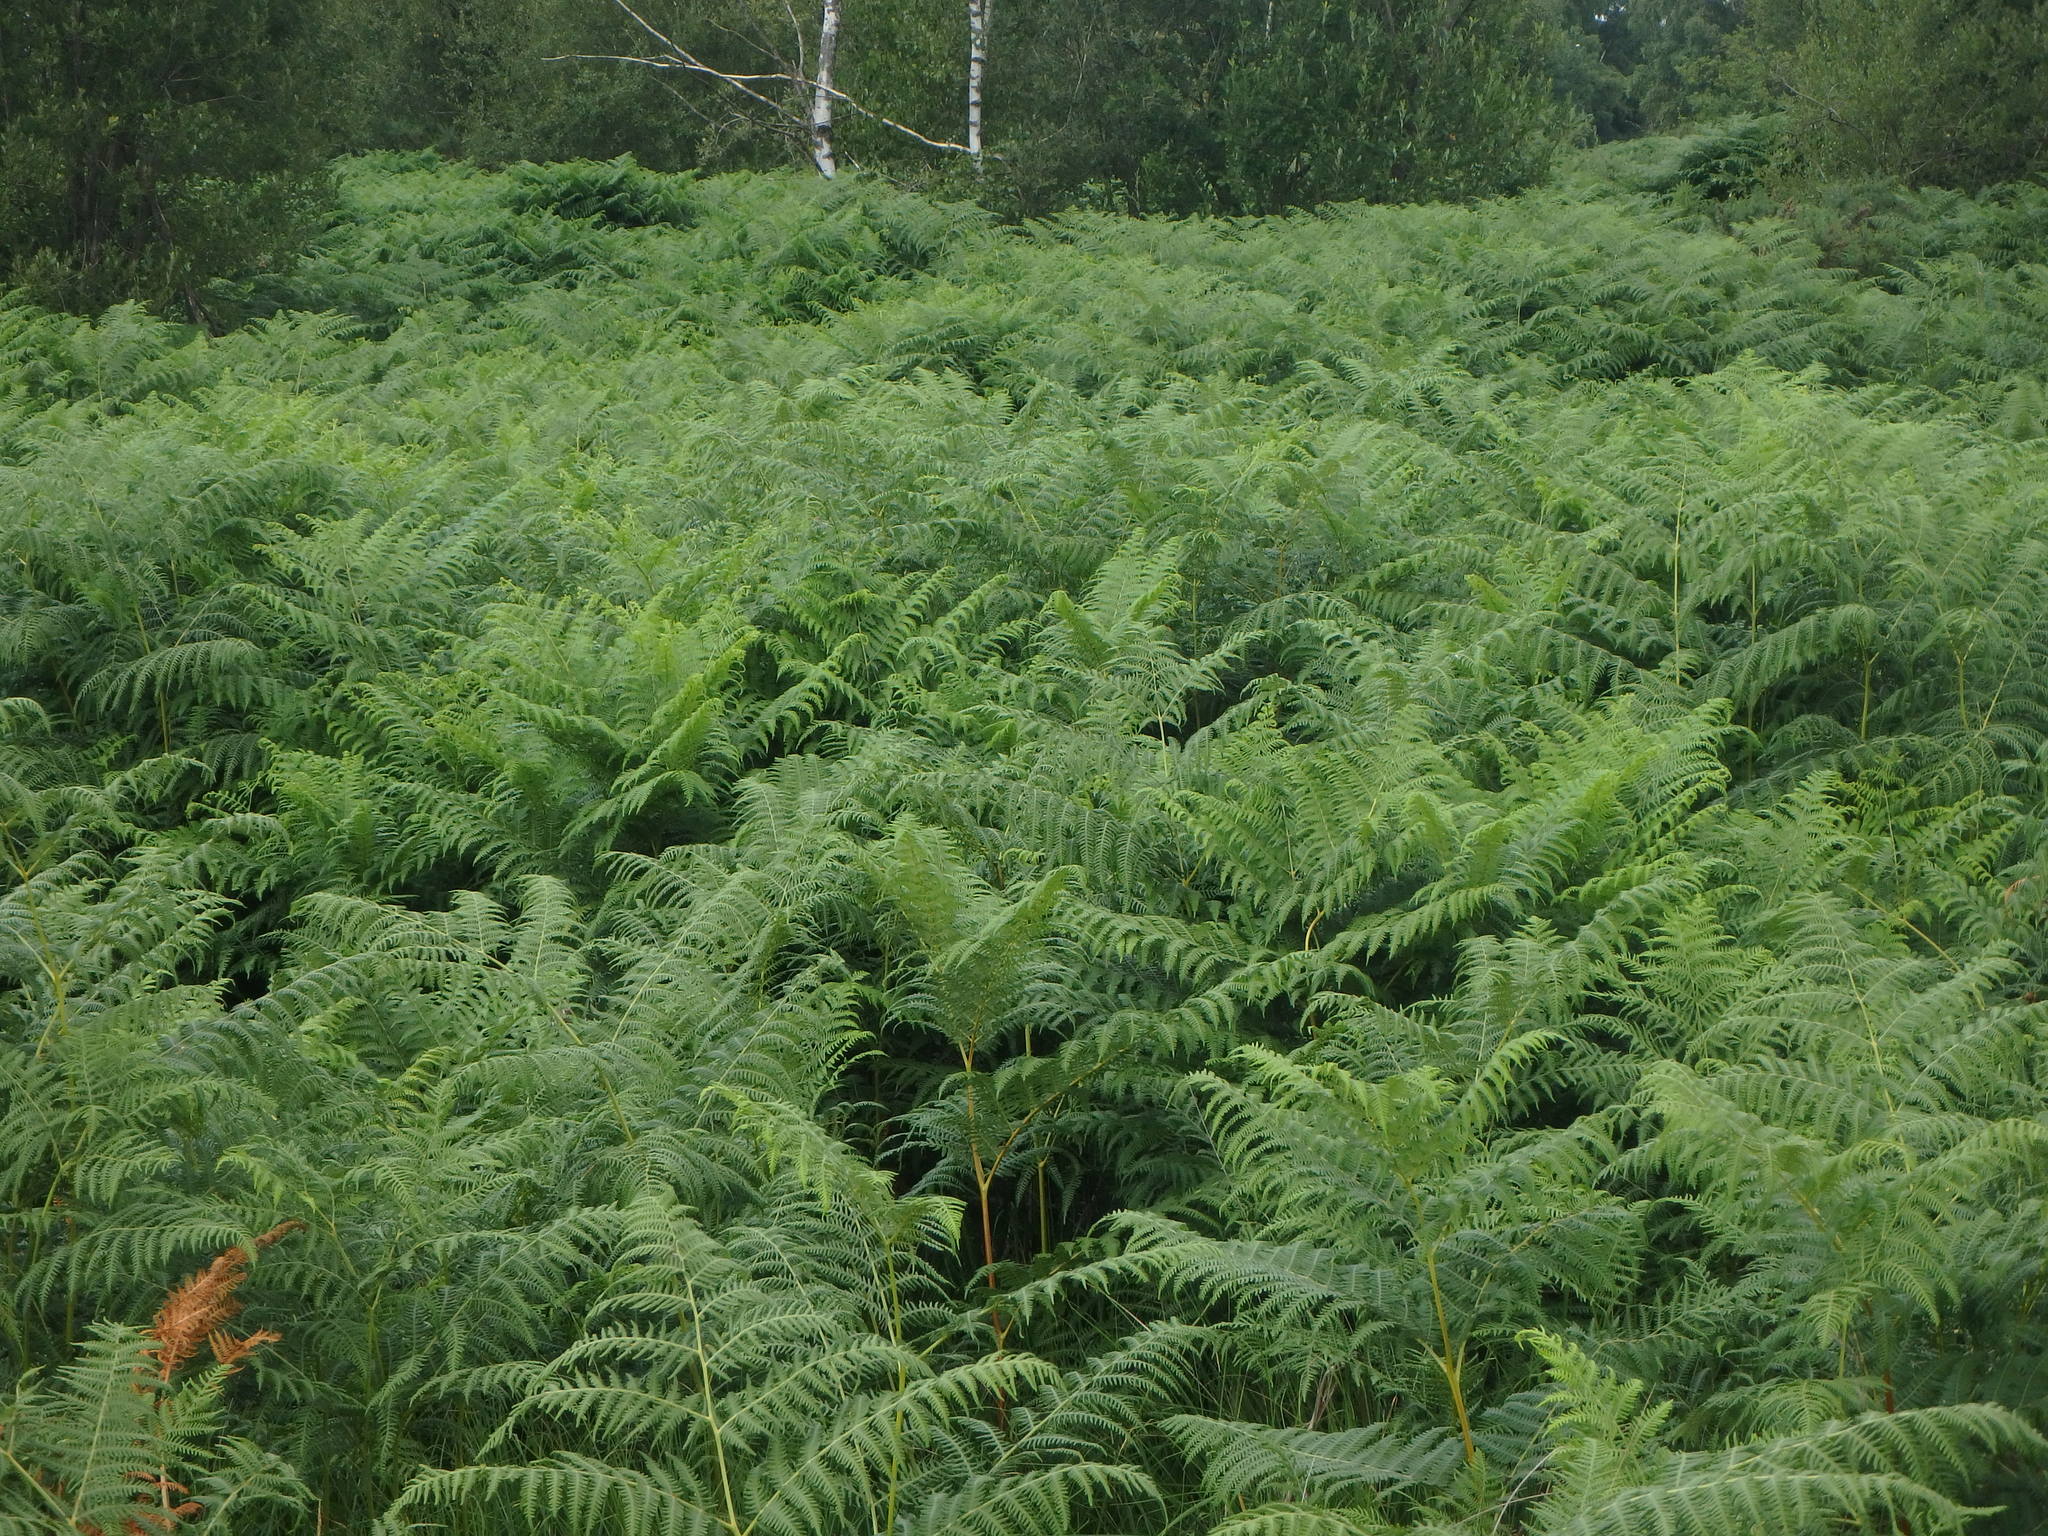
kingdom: Plantae
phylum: Tracheophyta
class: Polypodiopsida
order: Polypodiales
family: Dennstaedtiaceae
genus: Pteridium
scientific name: Pteridium aquilinum
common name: Bracken
